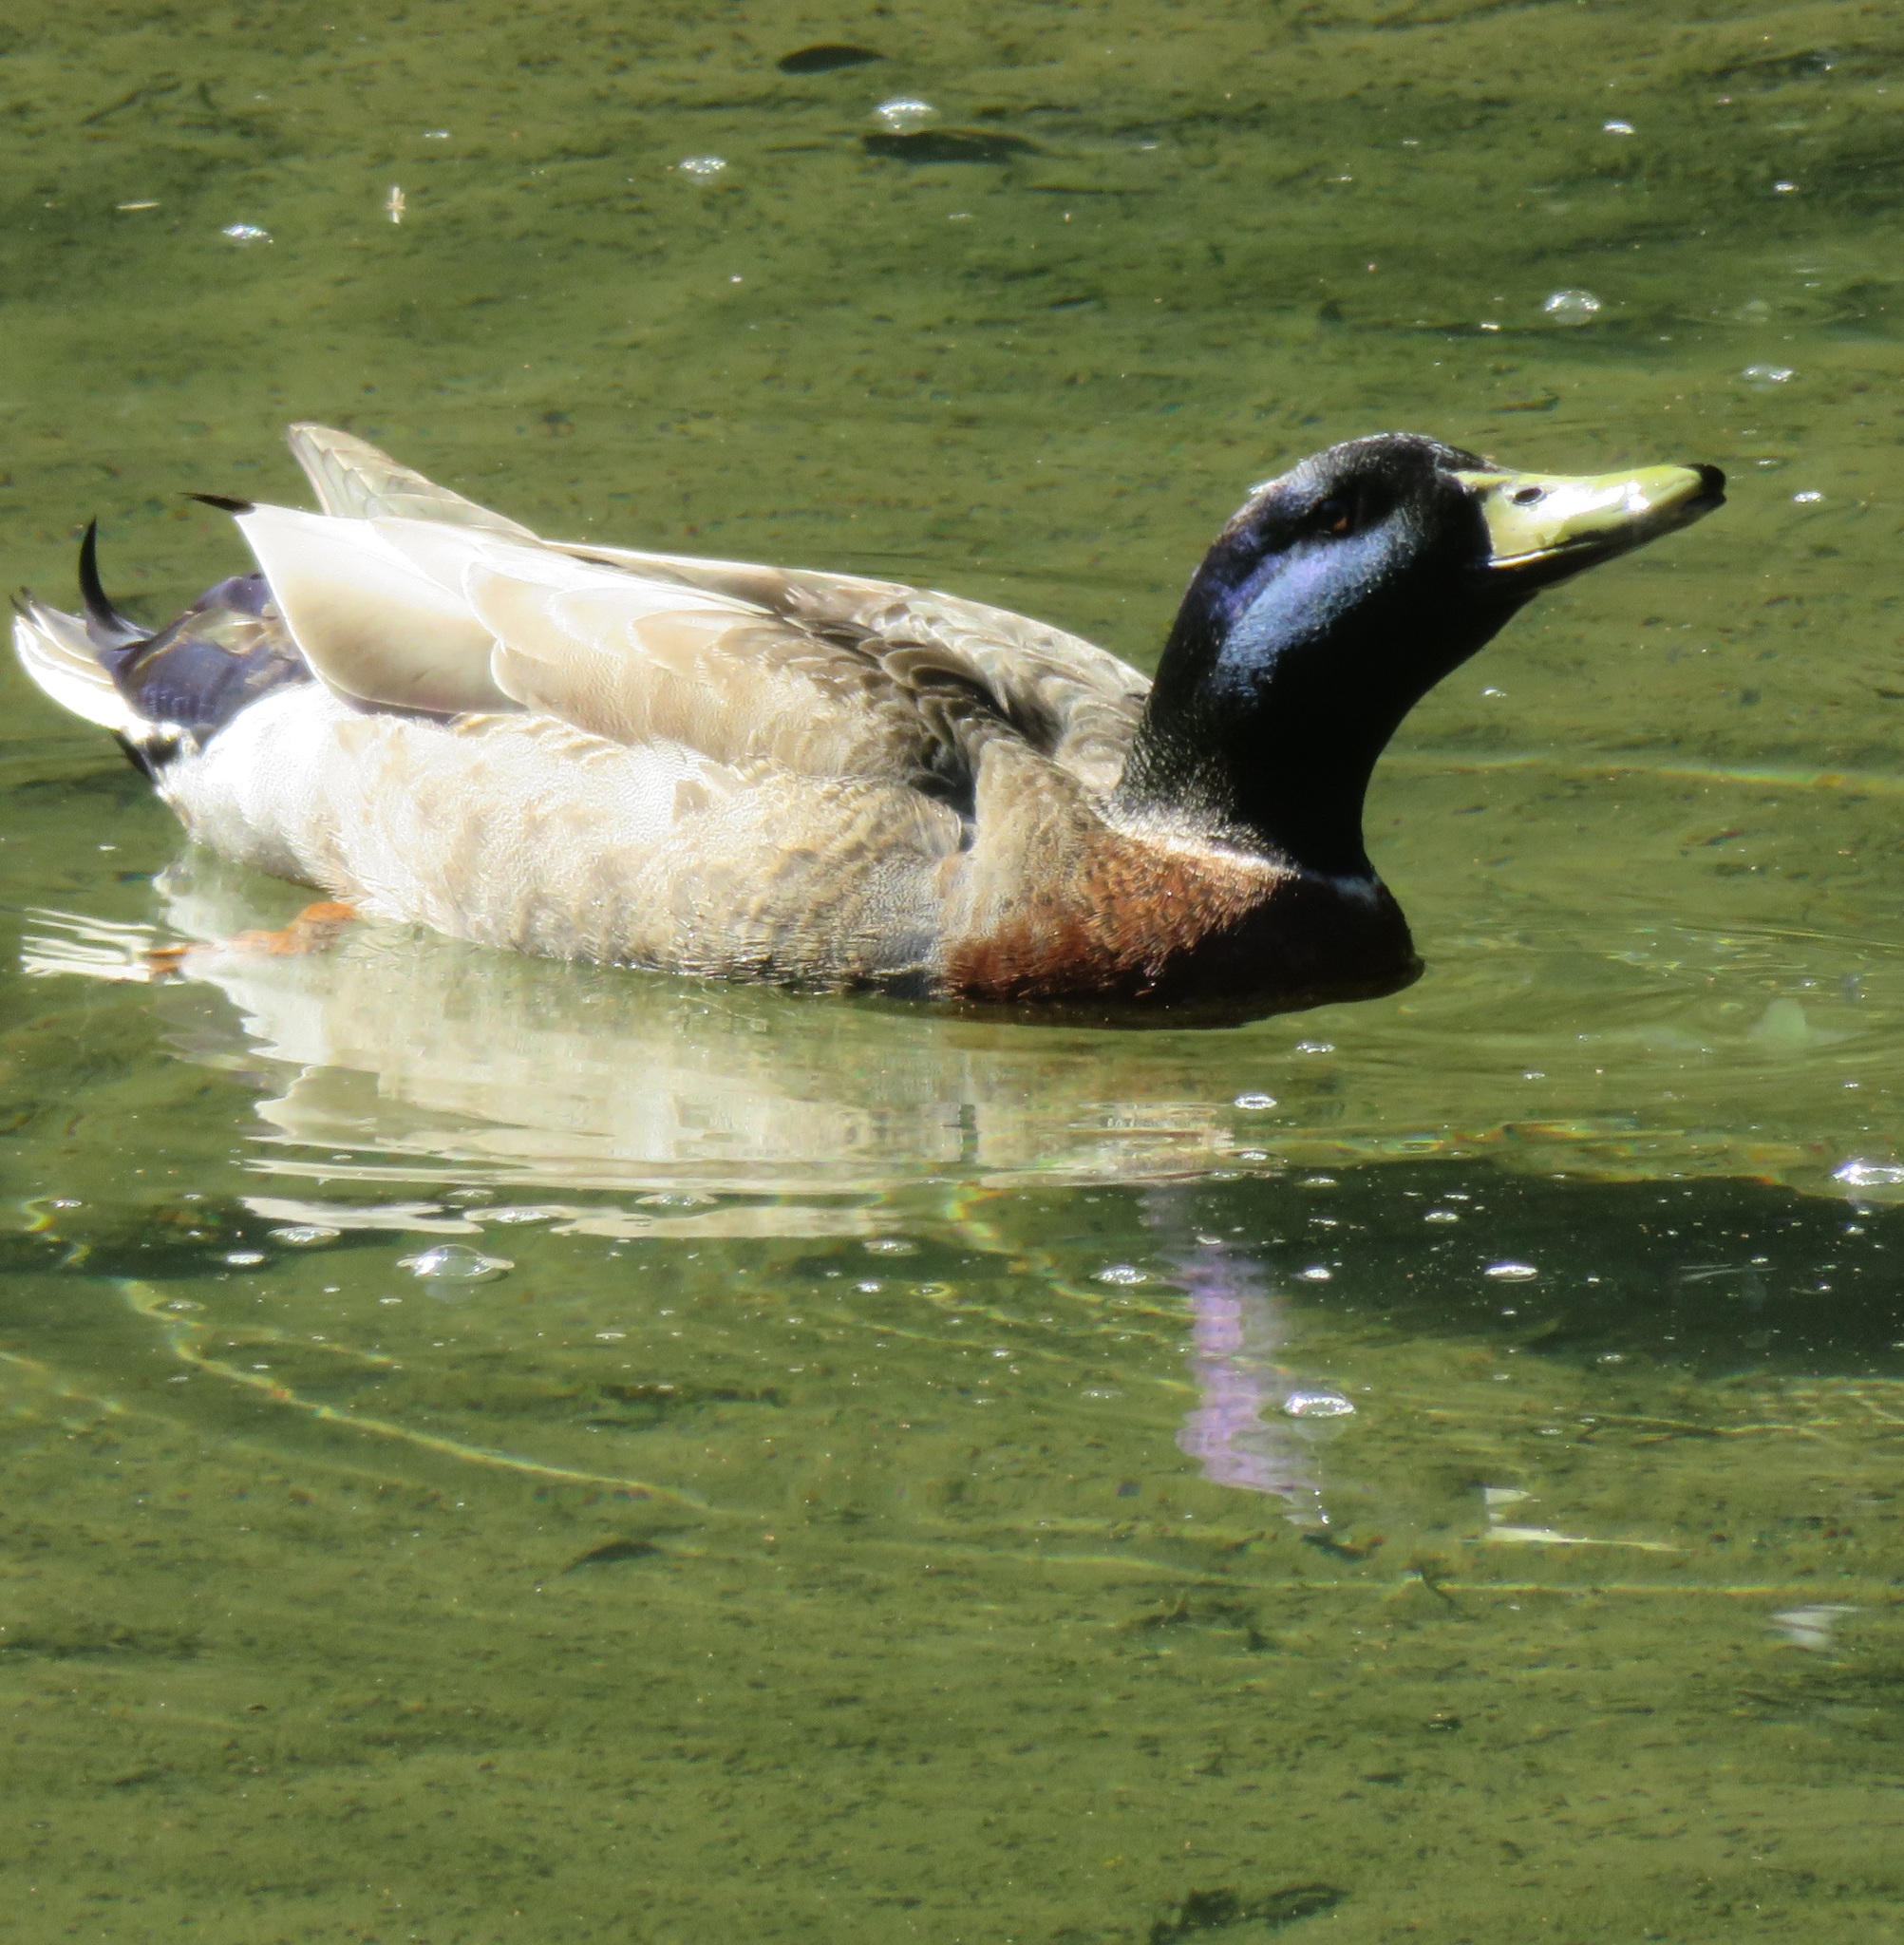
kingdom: Animalia
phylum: Chordata
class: Aves
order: Anseriformes
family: Anatidae
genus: Anas
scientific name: Anas platyrhynchos
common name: Mallard
